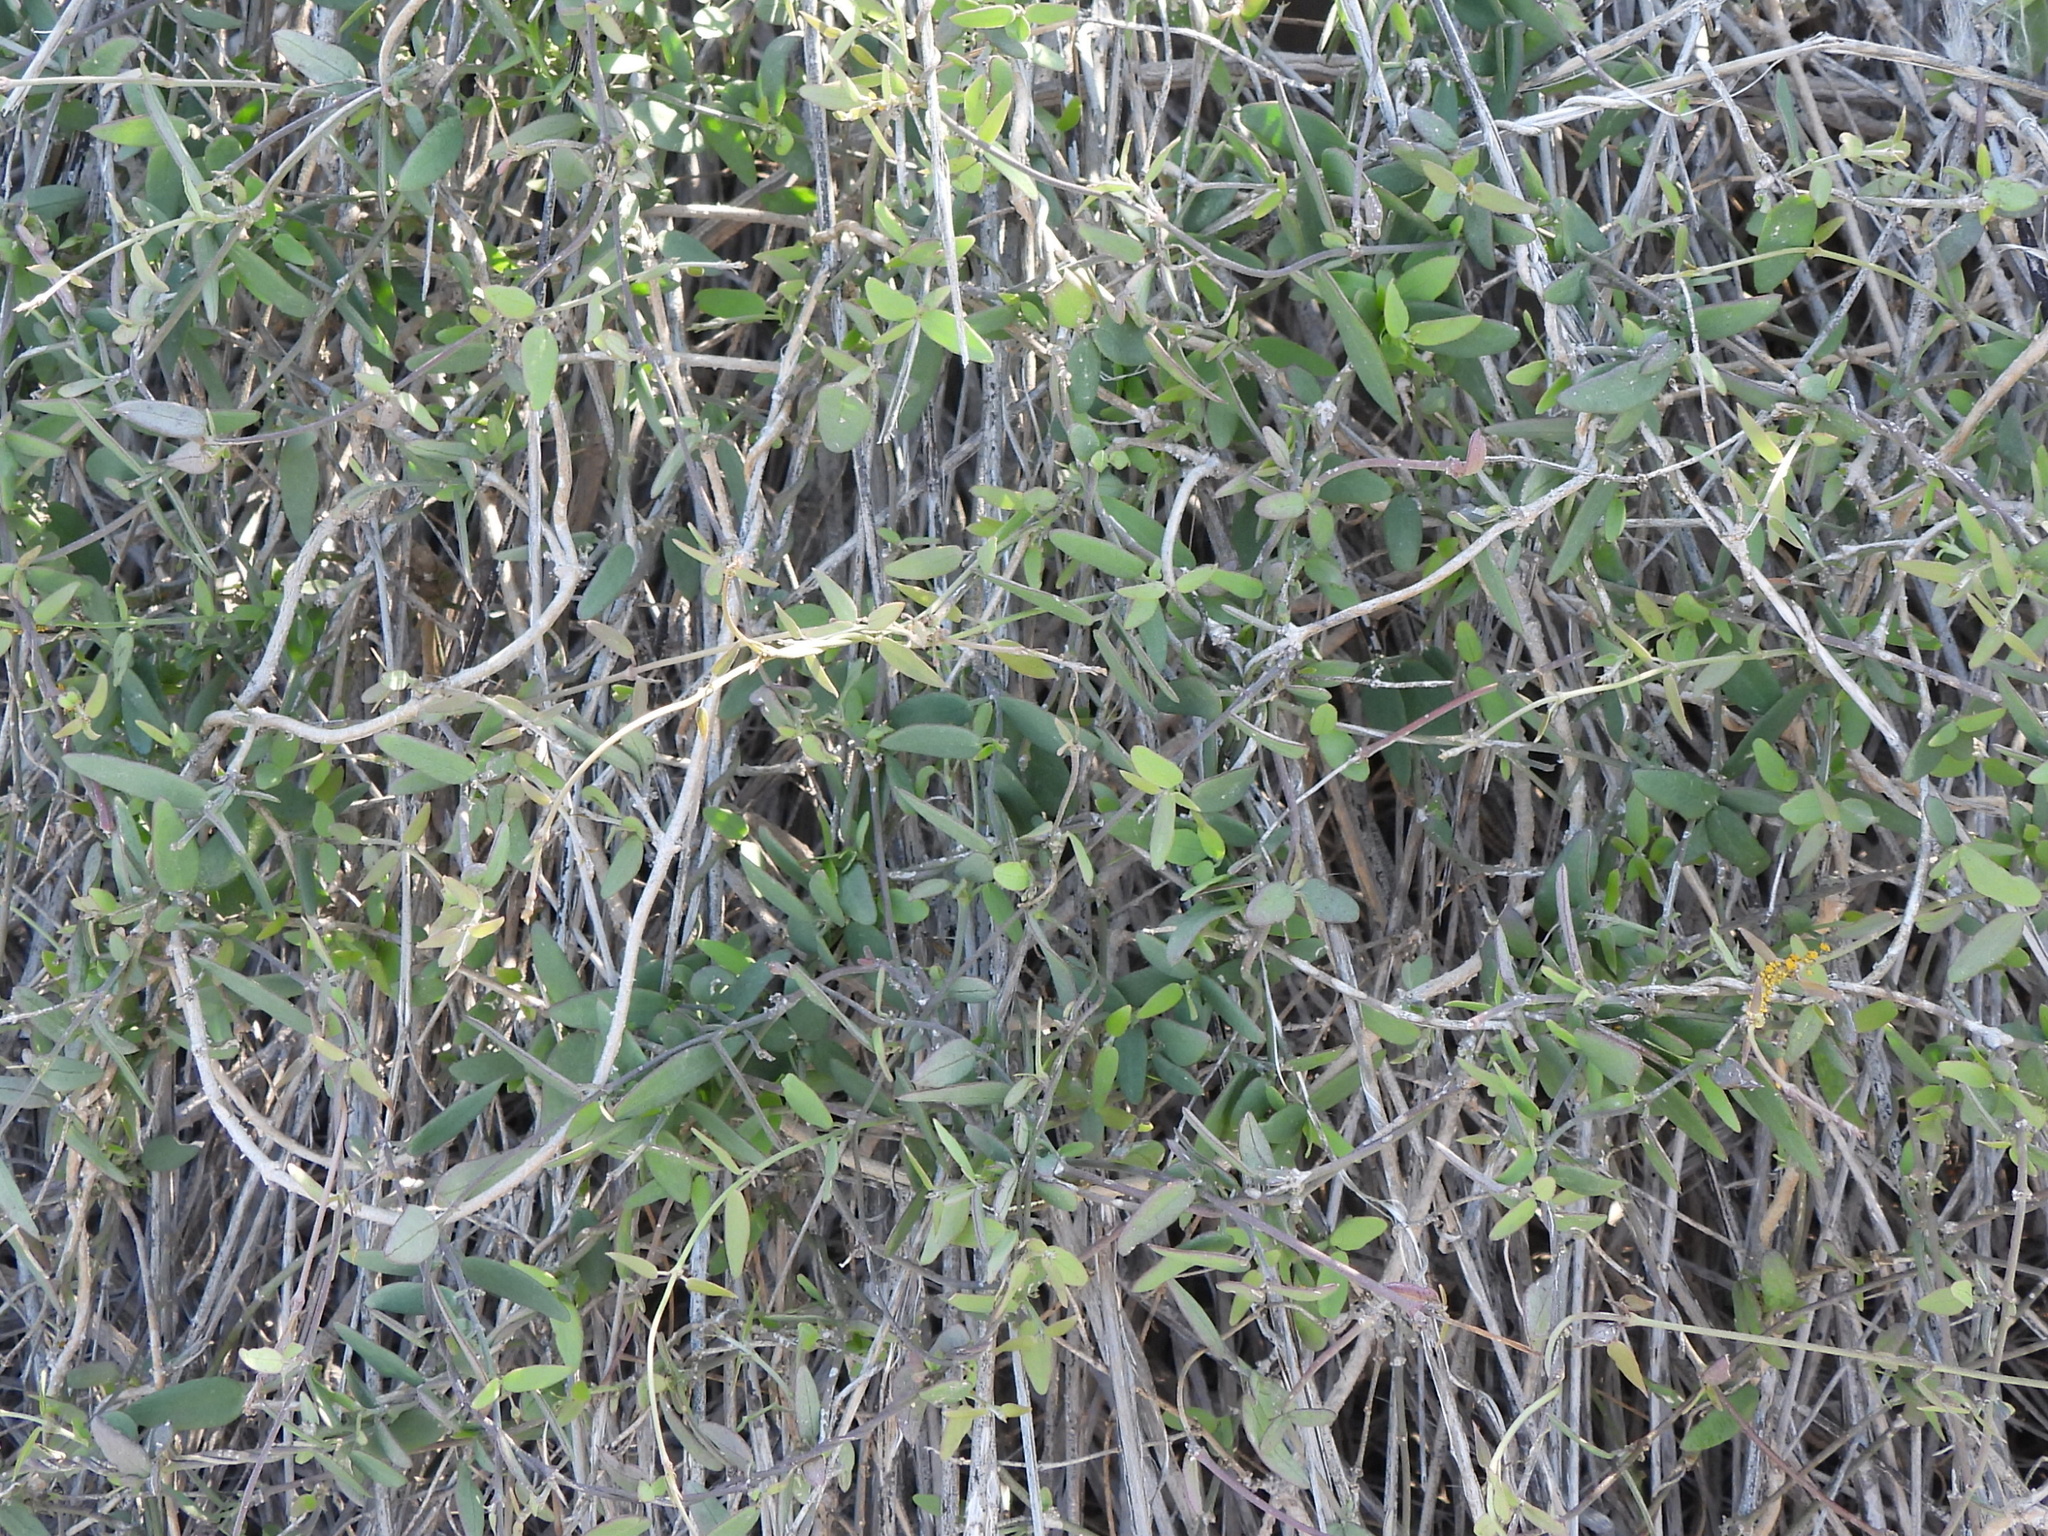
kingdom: Plantae
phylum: Tracheophyta
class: Magnoliopsida
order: Gentianales
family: Apocynaceae
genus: Pentatropis
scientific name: Pentatropis nivalis
